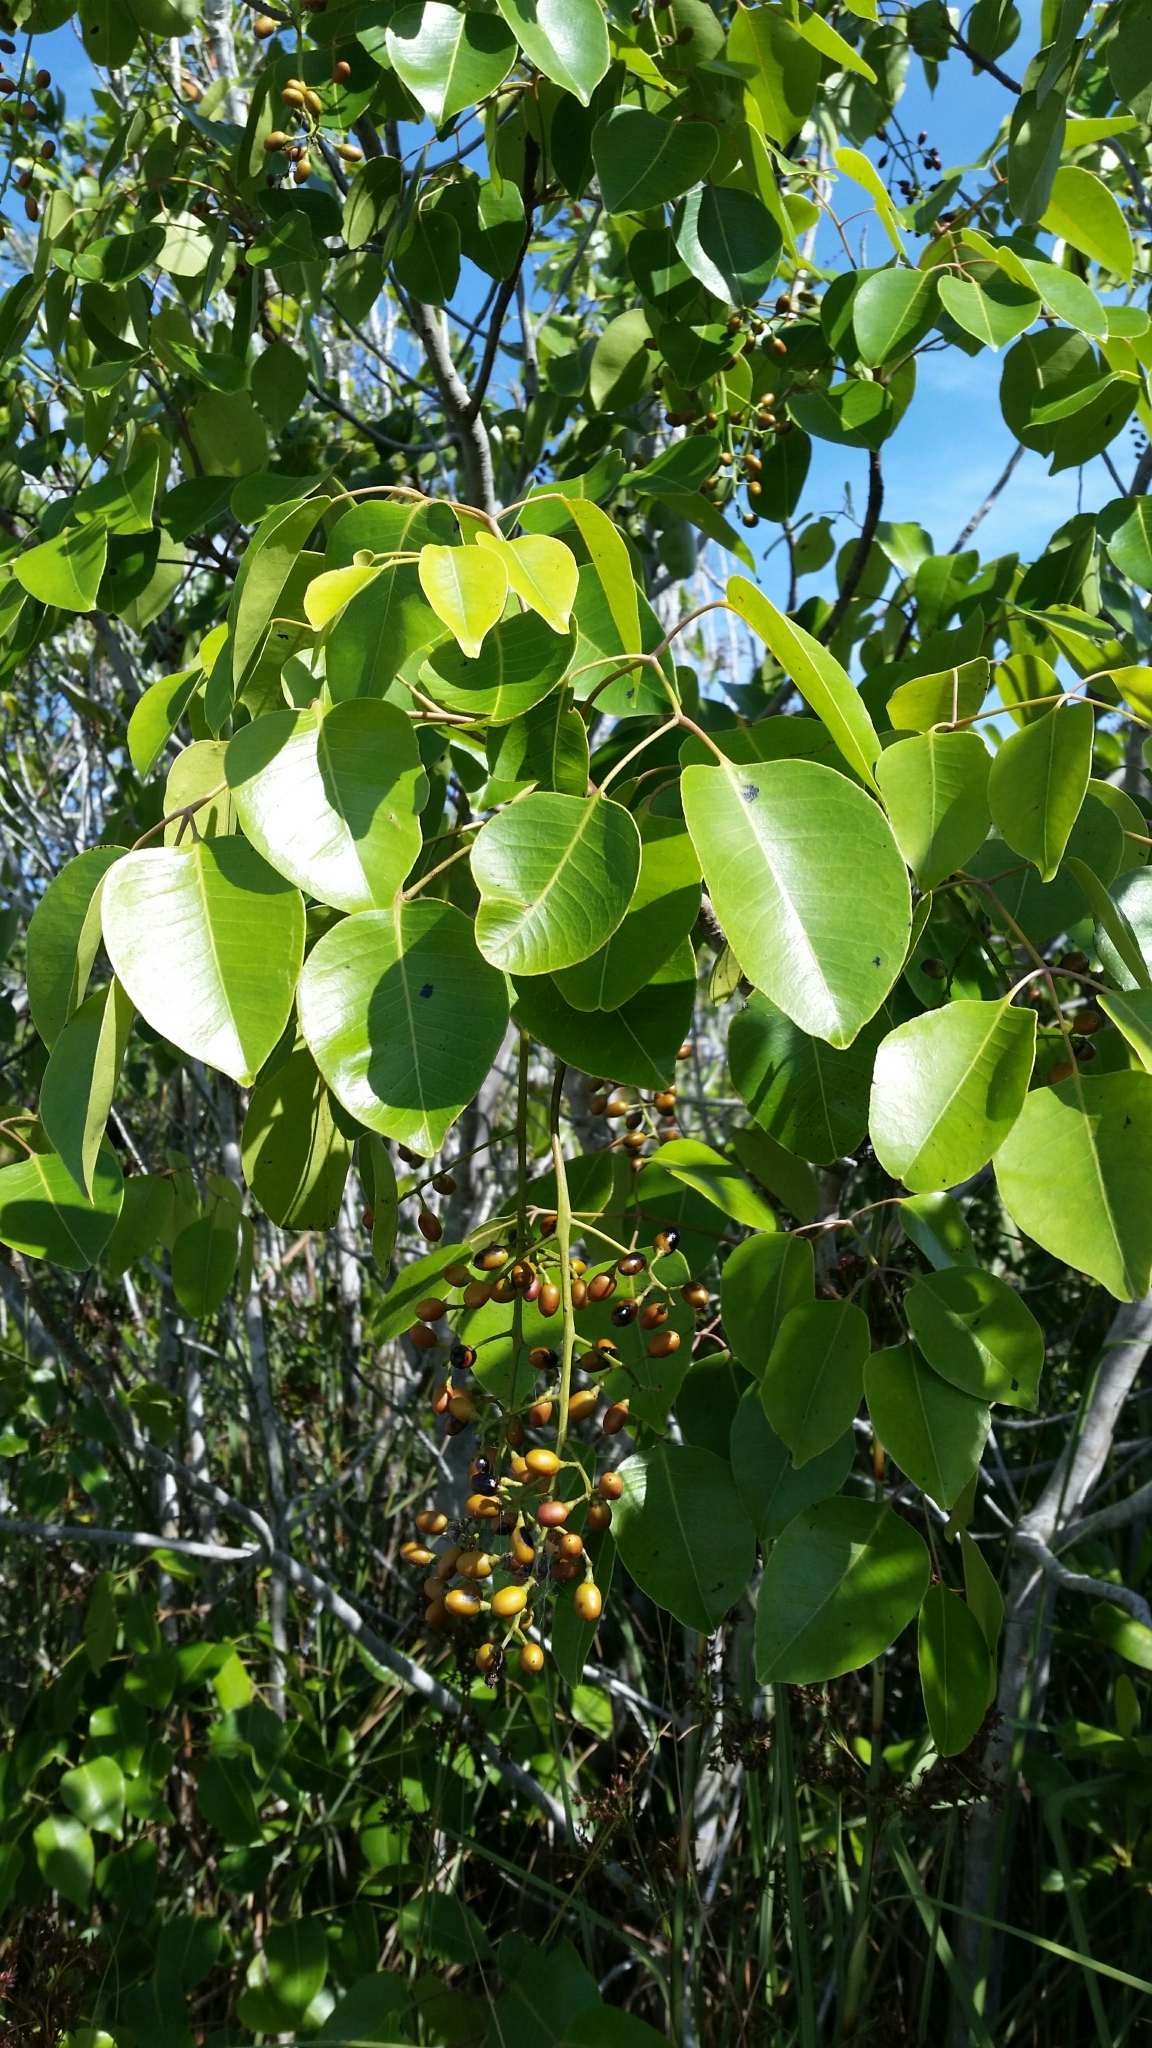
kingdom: Plantae
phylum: Tracheophyta
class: Magnoliopsida
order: Sapindales
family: Anacardiaceae
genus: Metopium
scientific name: Metopium toxiferum
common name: Florida poisontree
